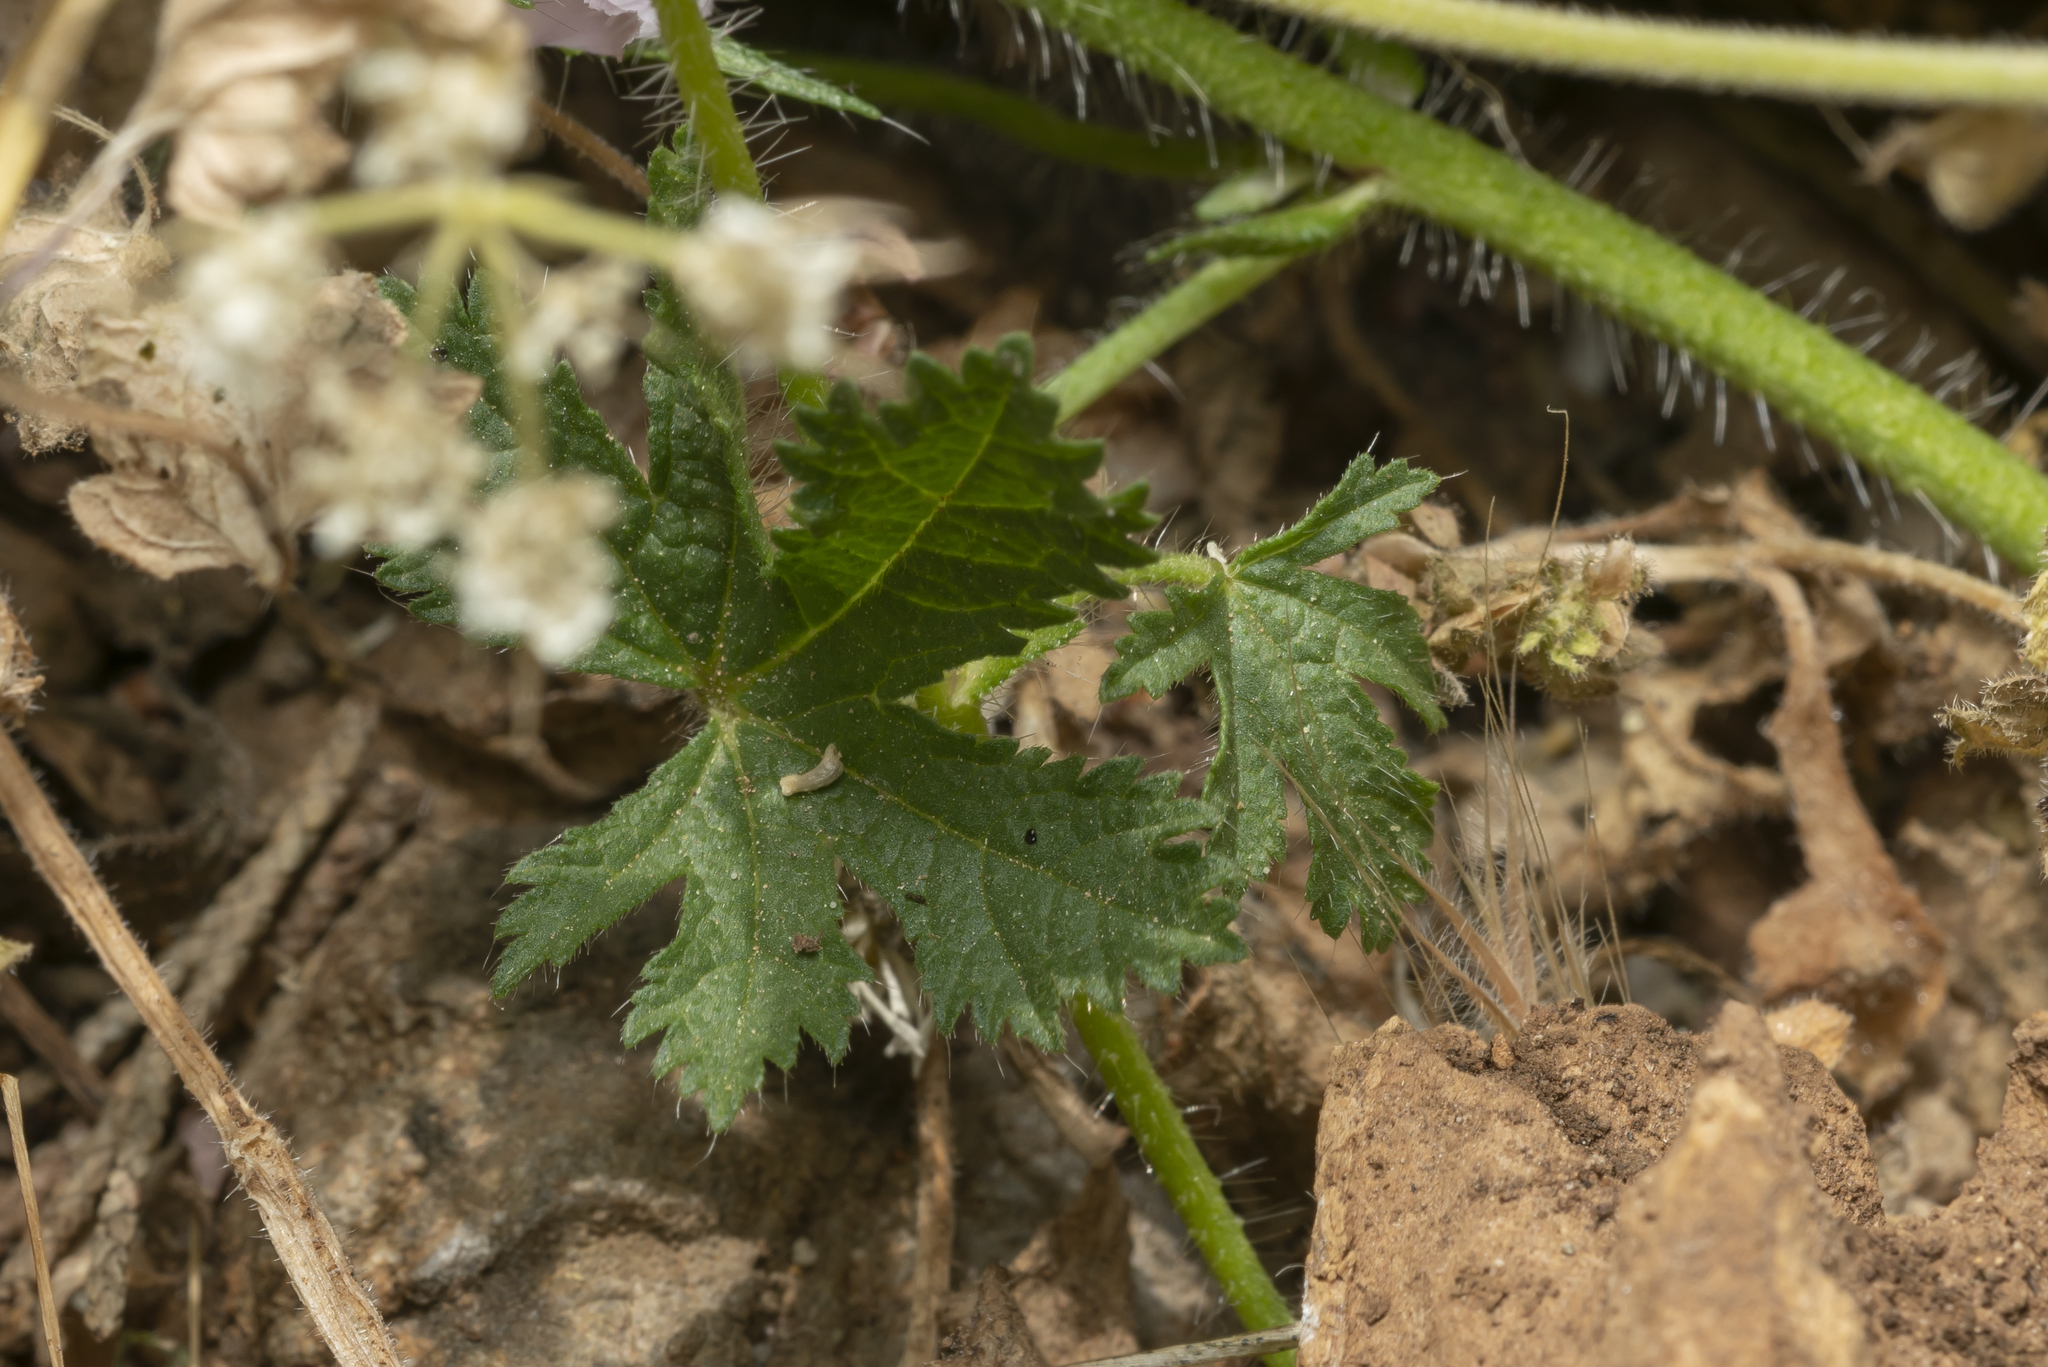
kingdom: Plantae
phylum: Tracheophyta
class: Magnoliopsida
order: Malvales
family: Malvaceae
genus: Malva
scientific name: Malva cretica
